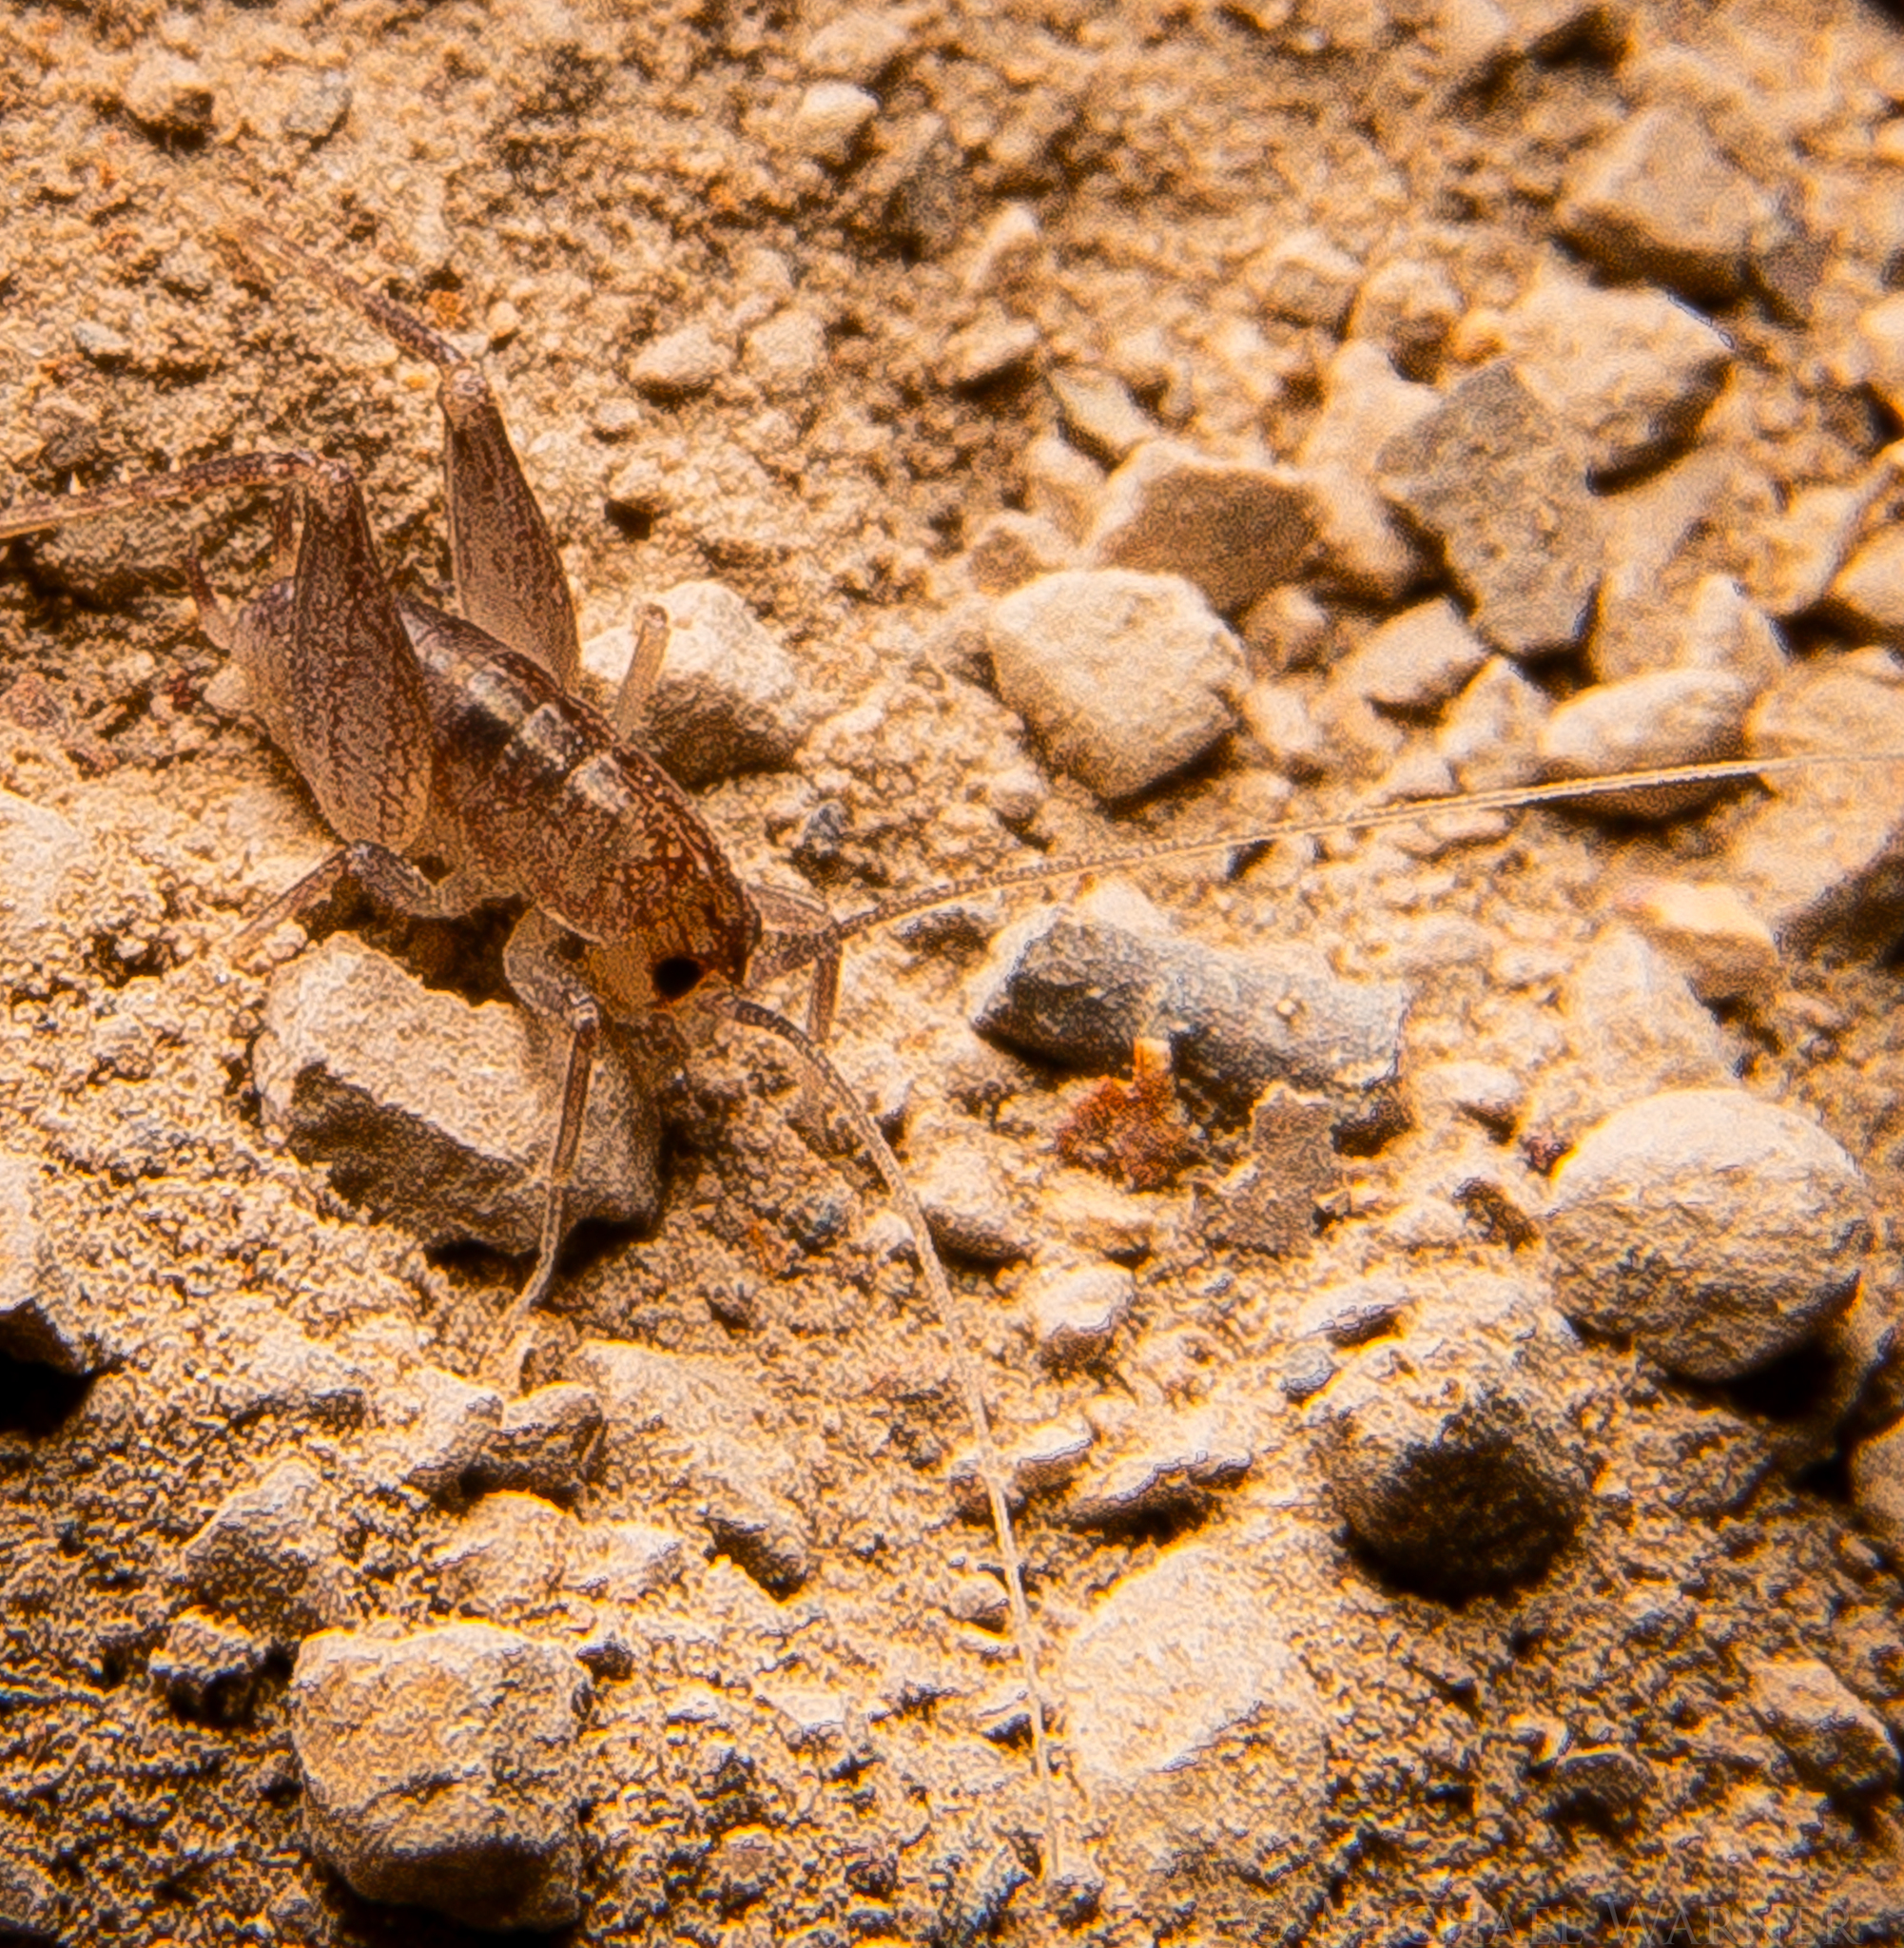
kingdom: Animalia
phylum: Arthropoda
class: Insecta
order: Orthoptera
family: Rhaphidophoridae
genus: Ceuthophilus
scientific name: Ceuthophilus californianus
